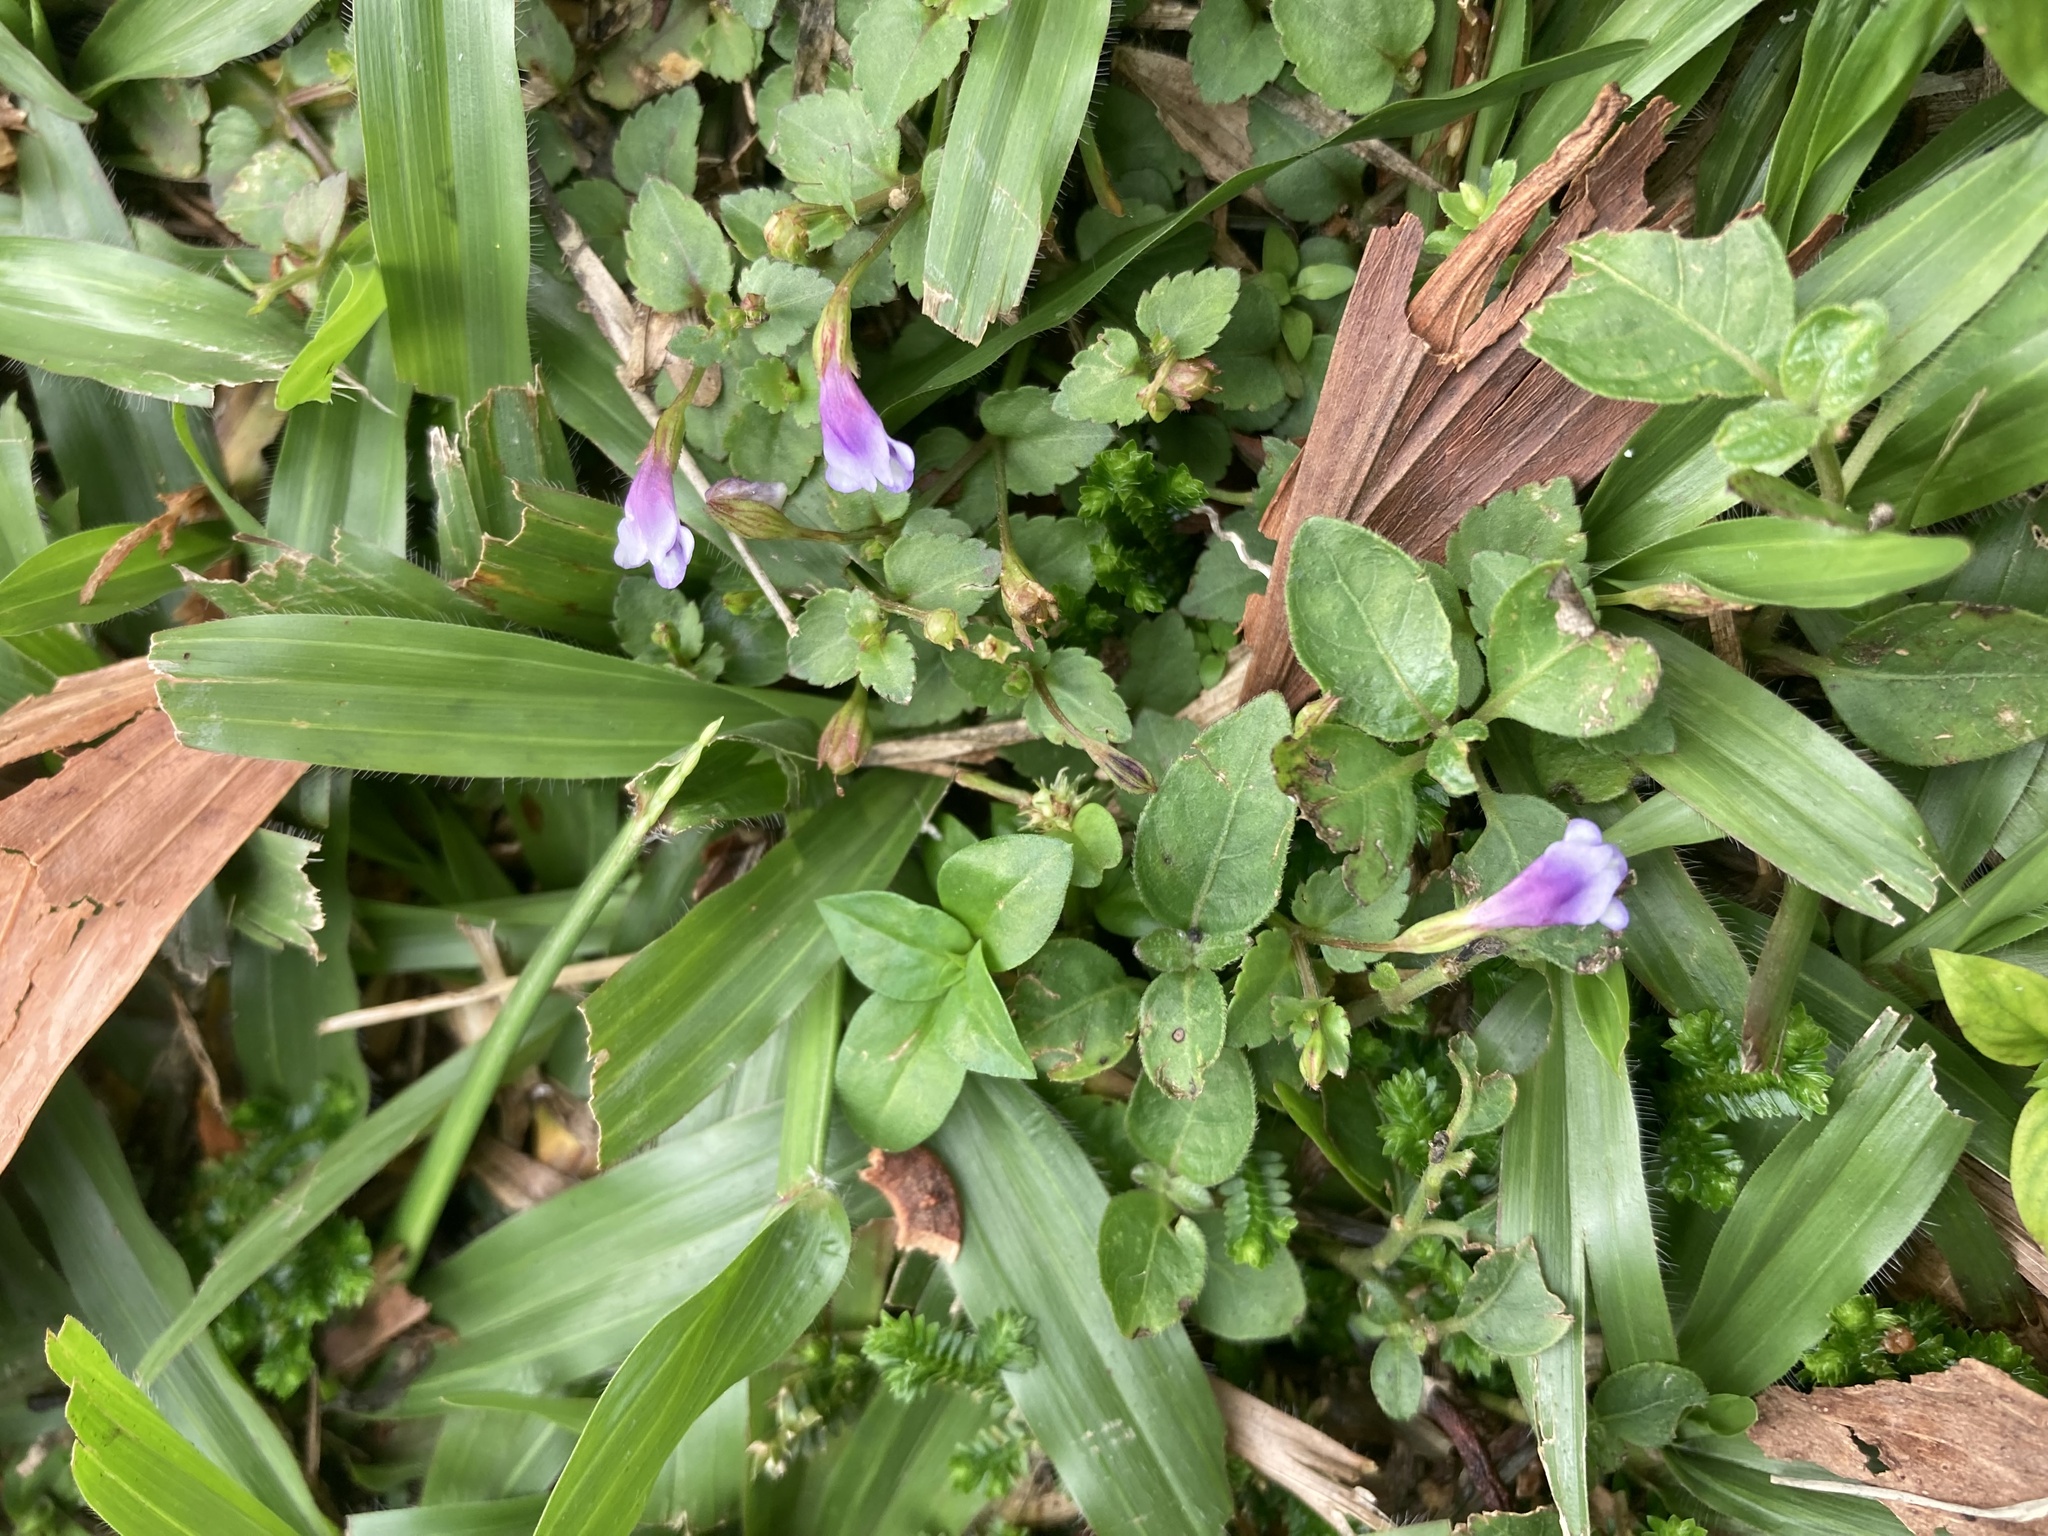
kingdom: Plantae
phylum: Tracheophyta
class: Magnoliopsida
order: Lamiales
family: Linderniaceae
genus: Torenia
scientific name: Torenia crustacea
